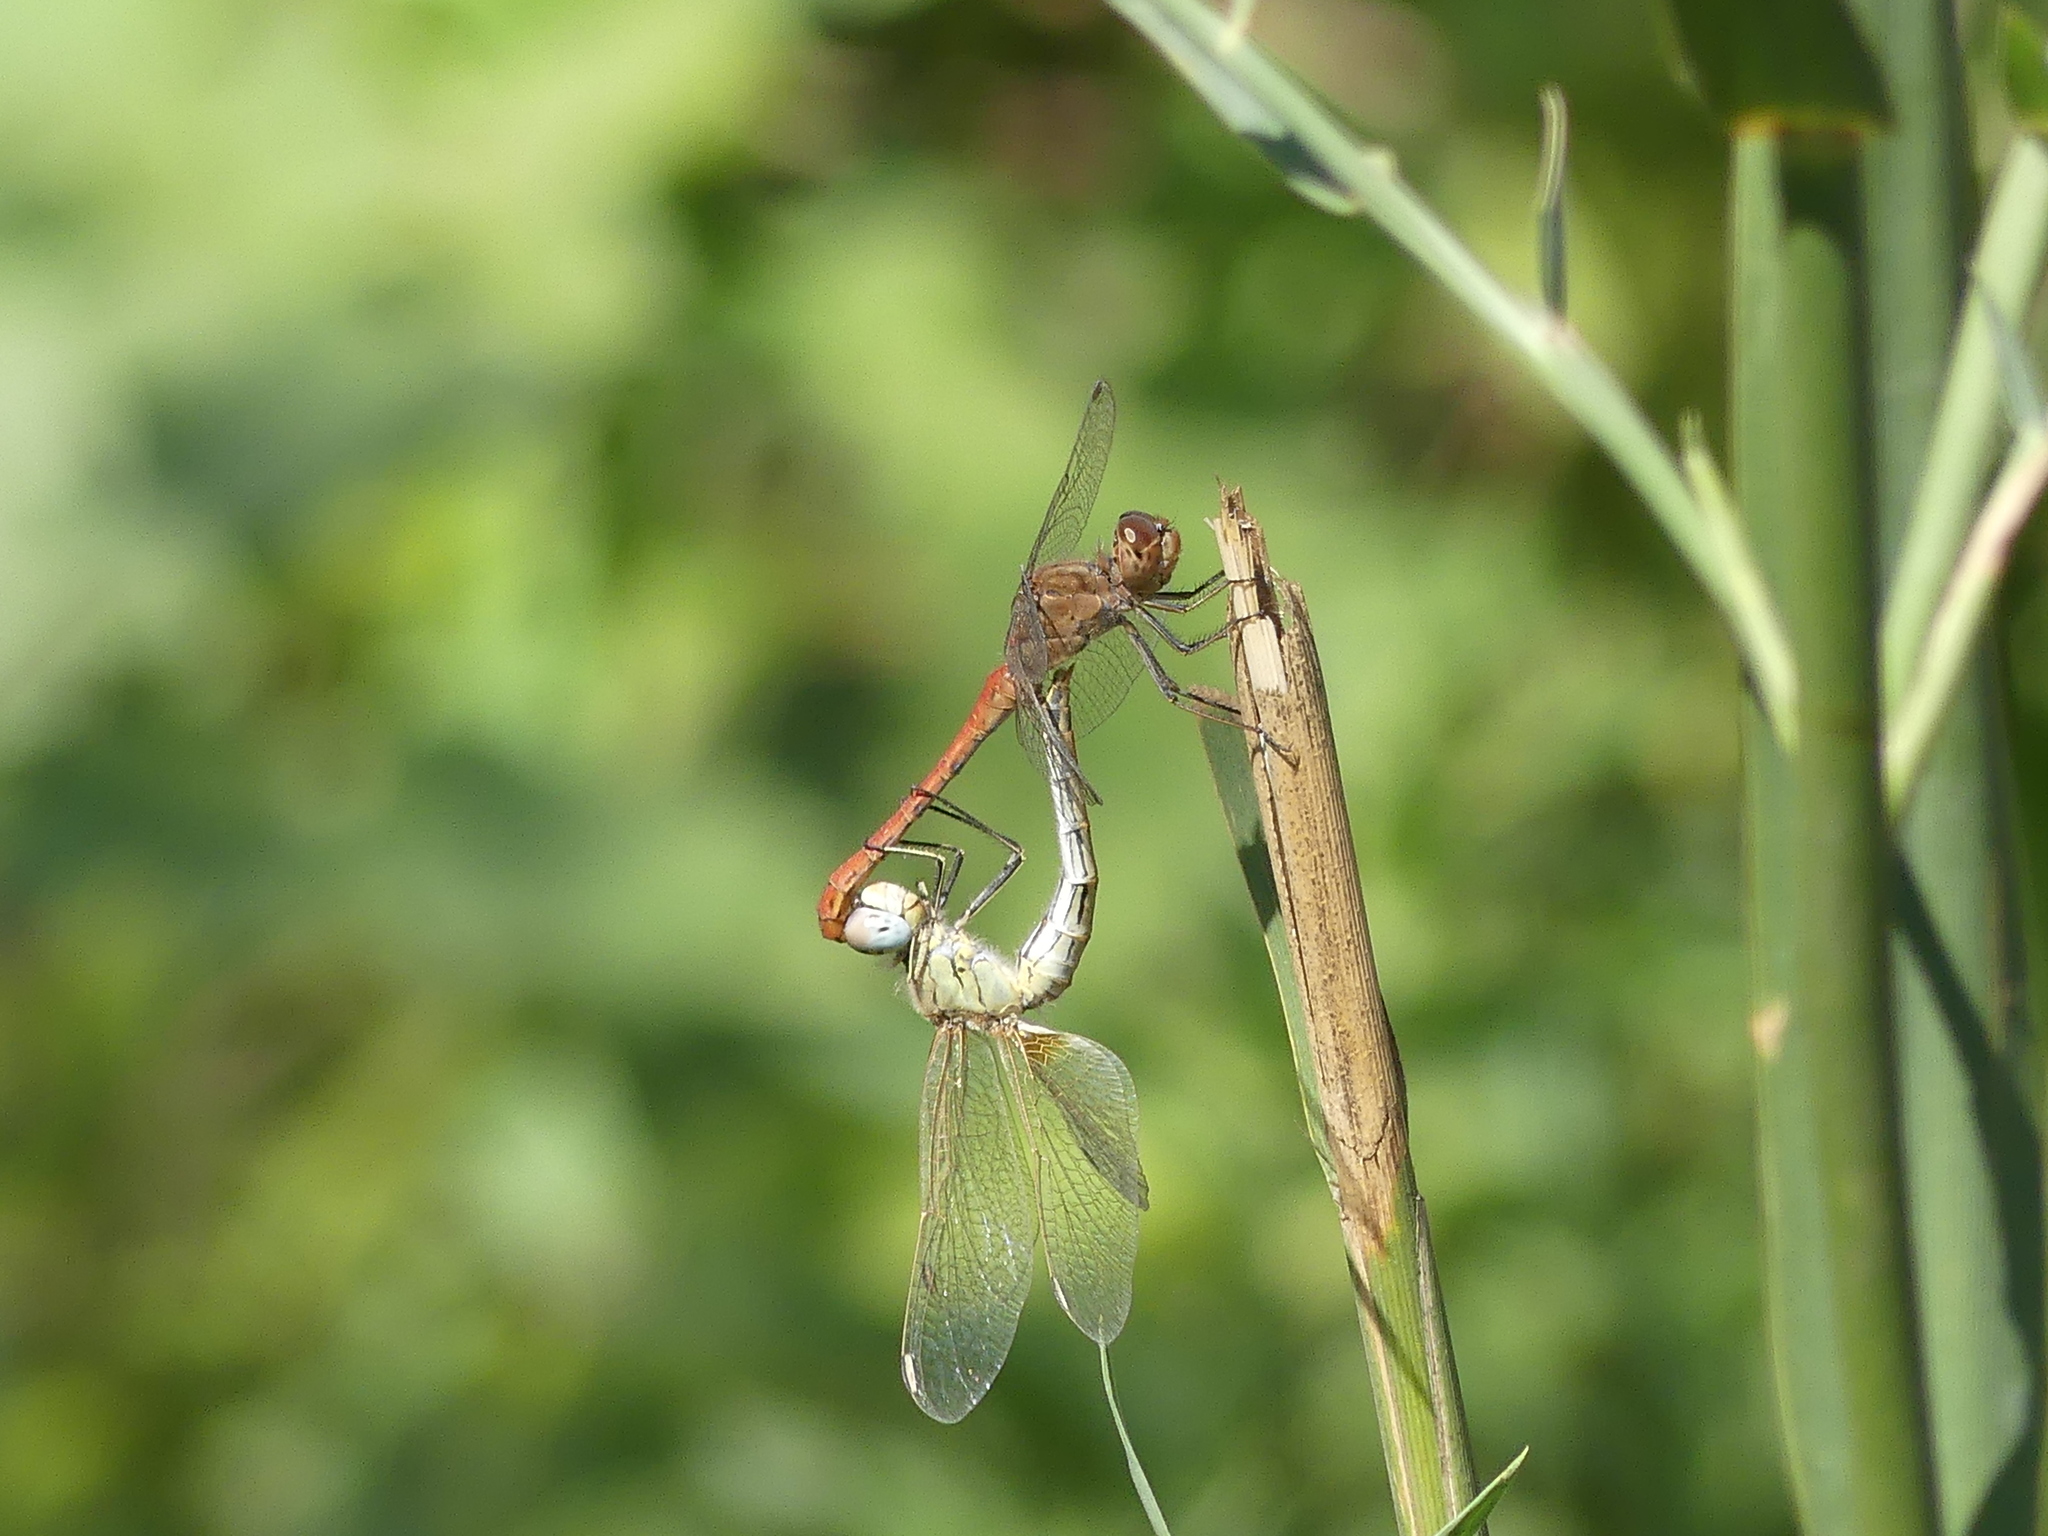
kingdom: Animalia
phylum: Arthropoda
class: Insecta
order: Odonata
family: Libellulidae
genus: Sympetrum
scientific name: Sympetrum meridionale
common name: Southern darter
